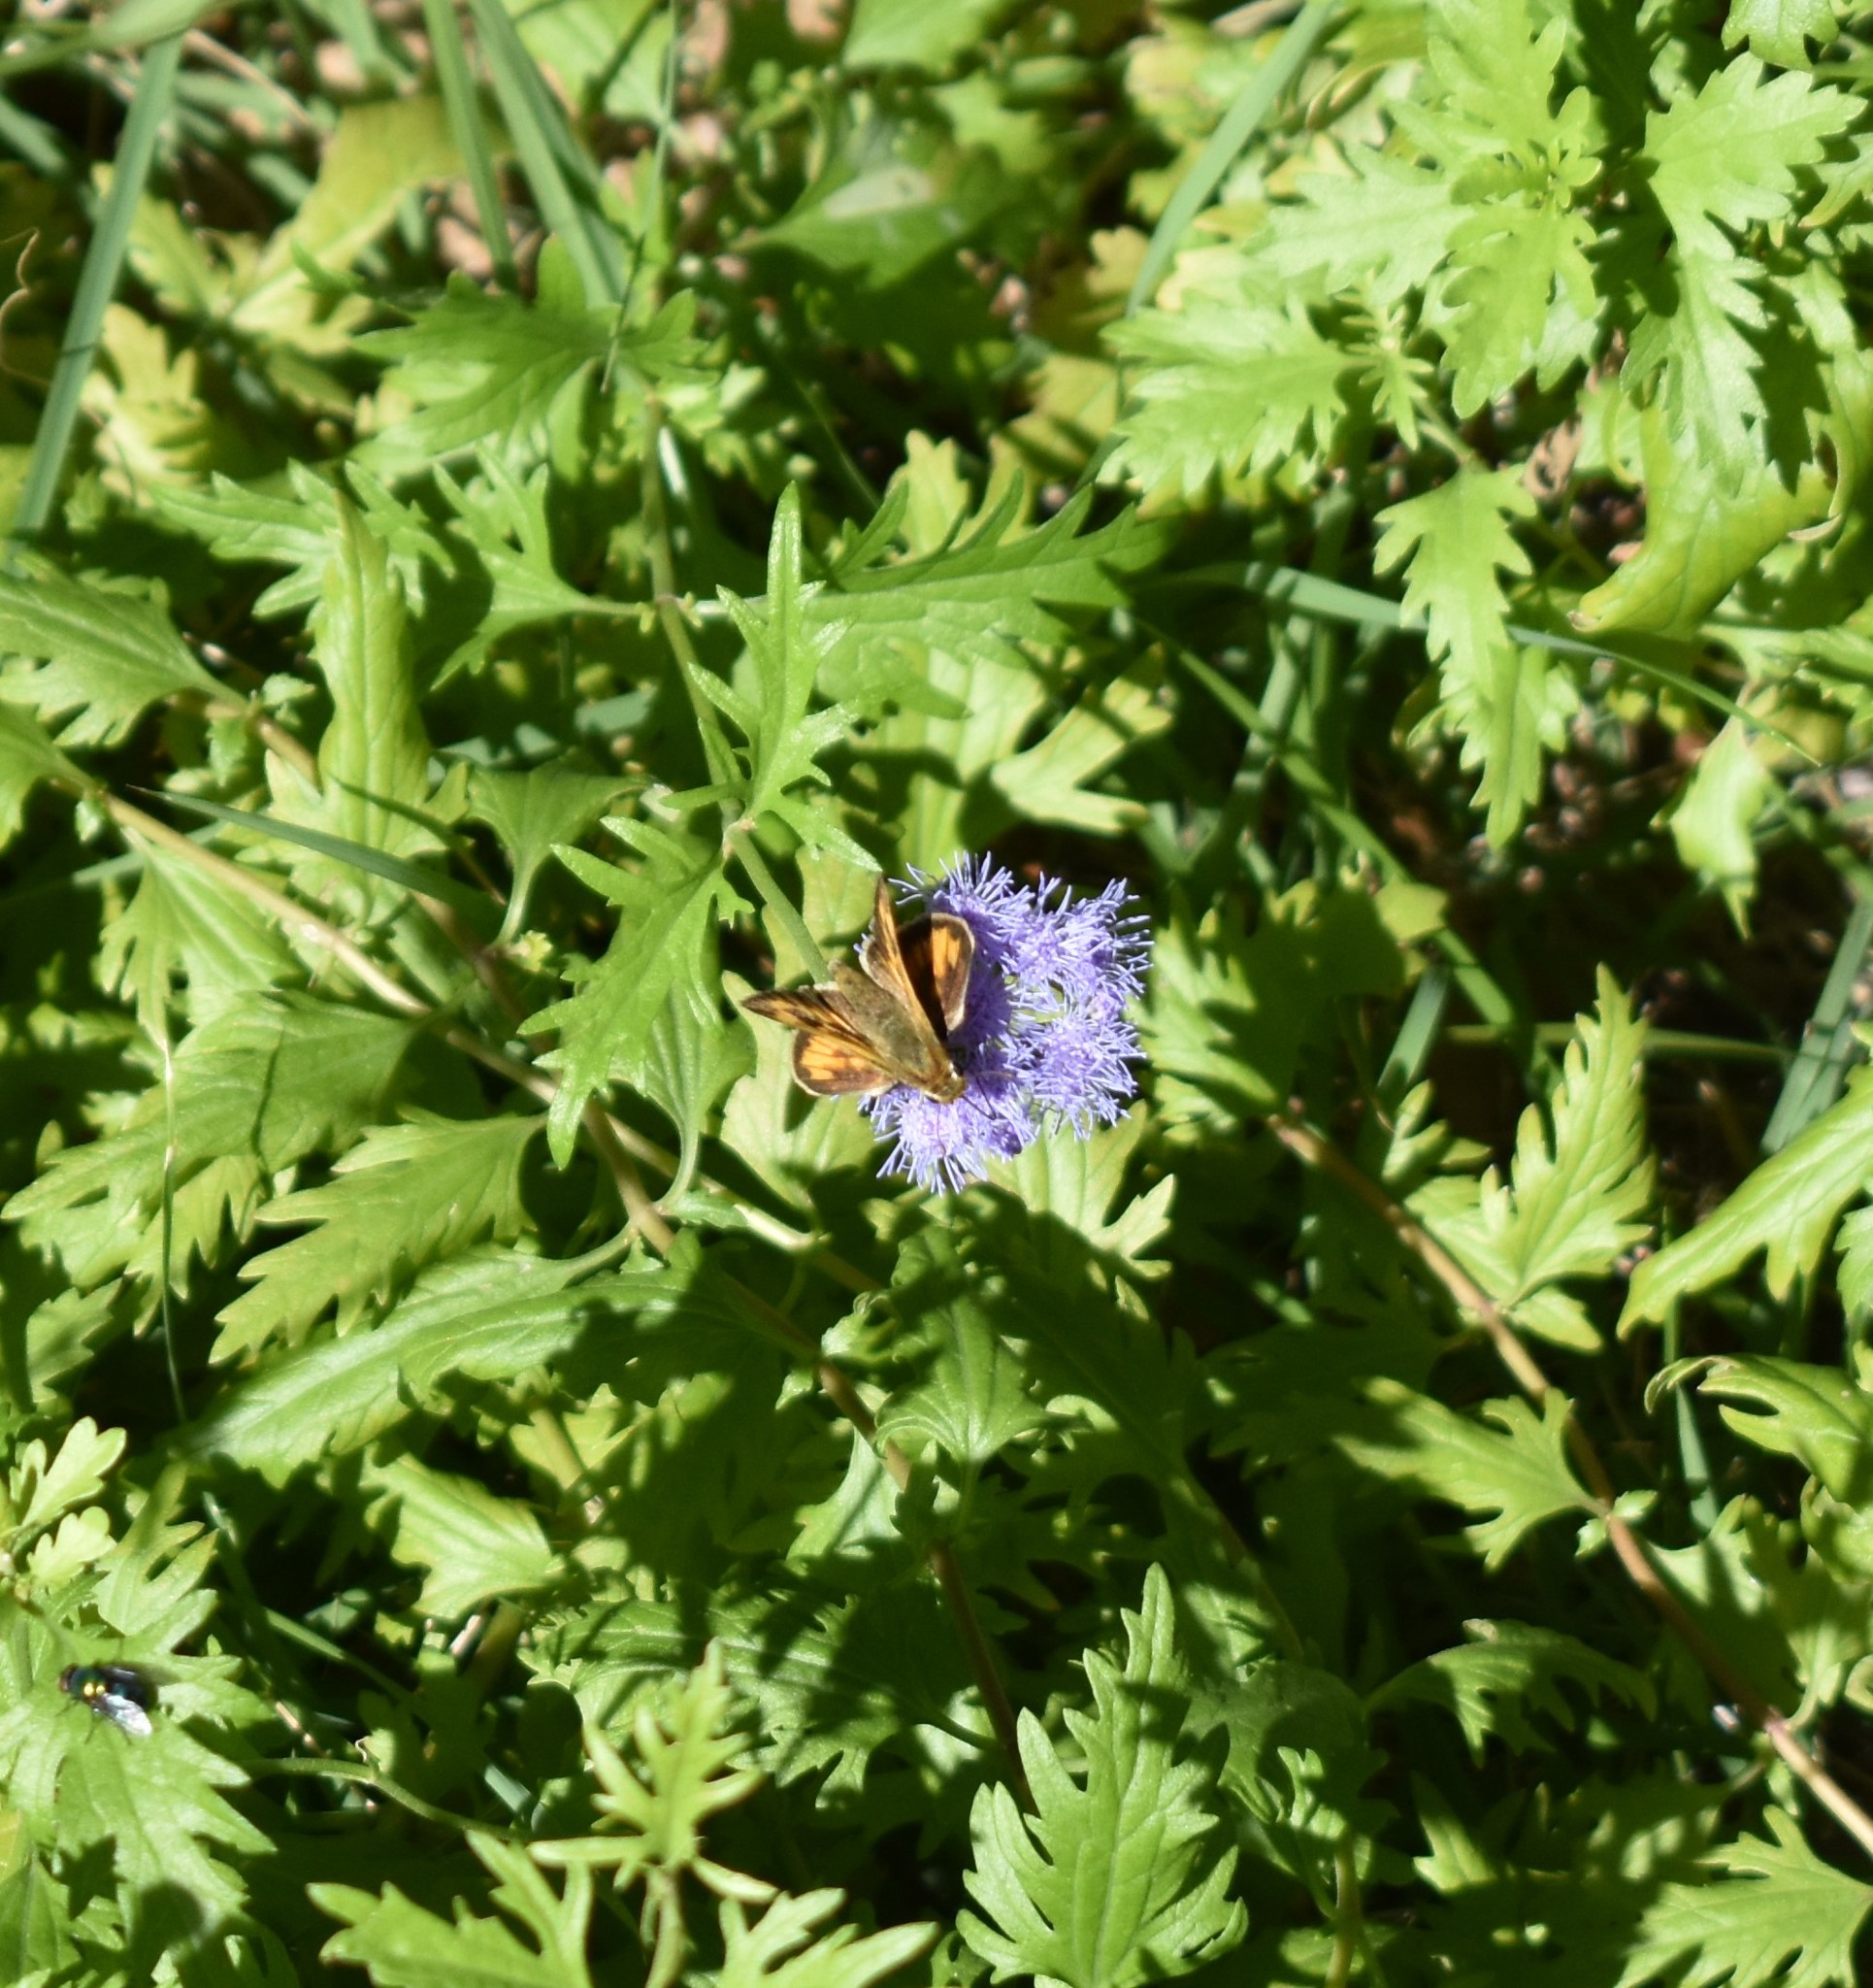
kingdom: Animalia
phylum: Arthropoda
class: Insecta
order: Lepidoptera
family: Hesperiidae
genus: Hylephila
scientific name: Hylephila phyleus
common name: Fiery skipper
